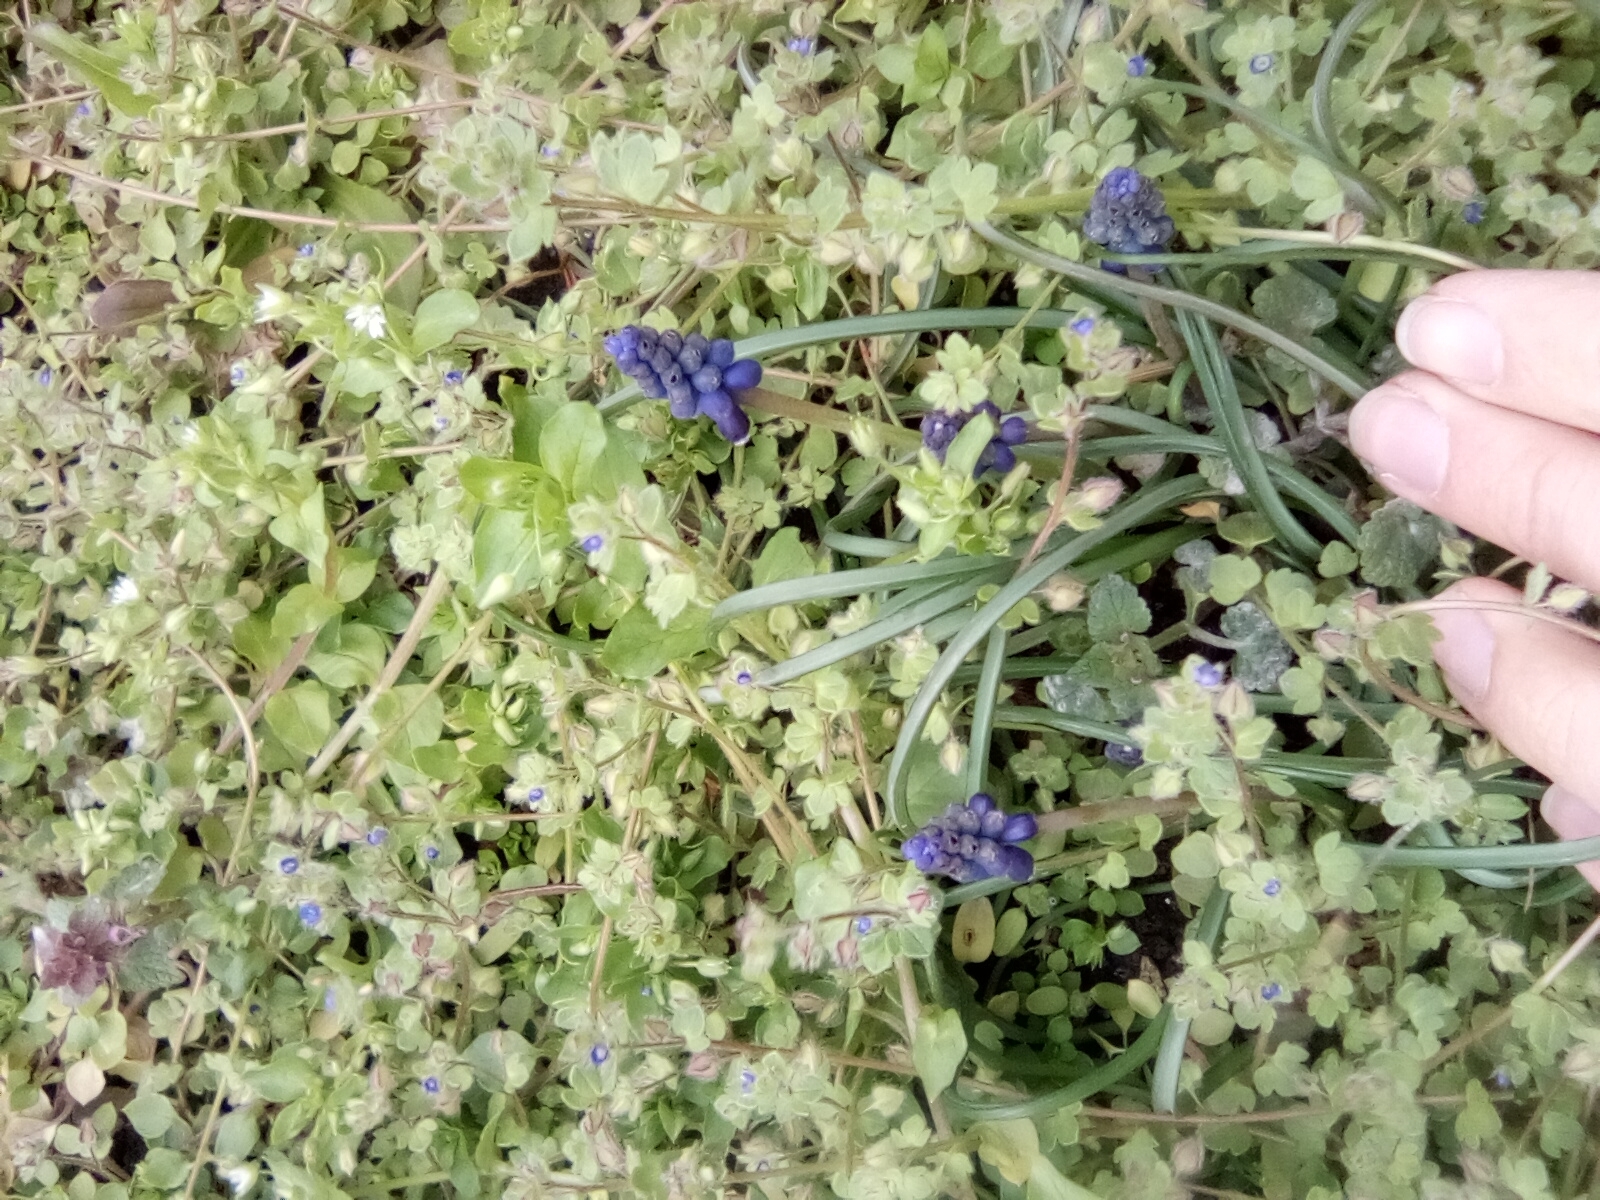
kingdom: Plantae
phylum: Tracheophyta
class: Liliopsida
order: Asparagales
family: Asparagaceae
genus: Muscari
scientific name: Muscari neglectum
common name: Grape-hyacinth
